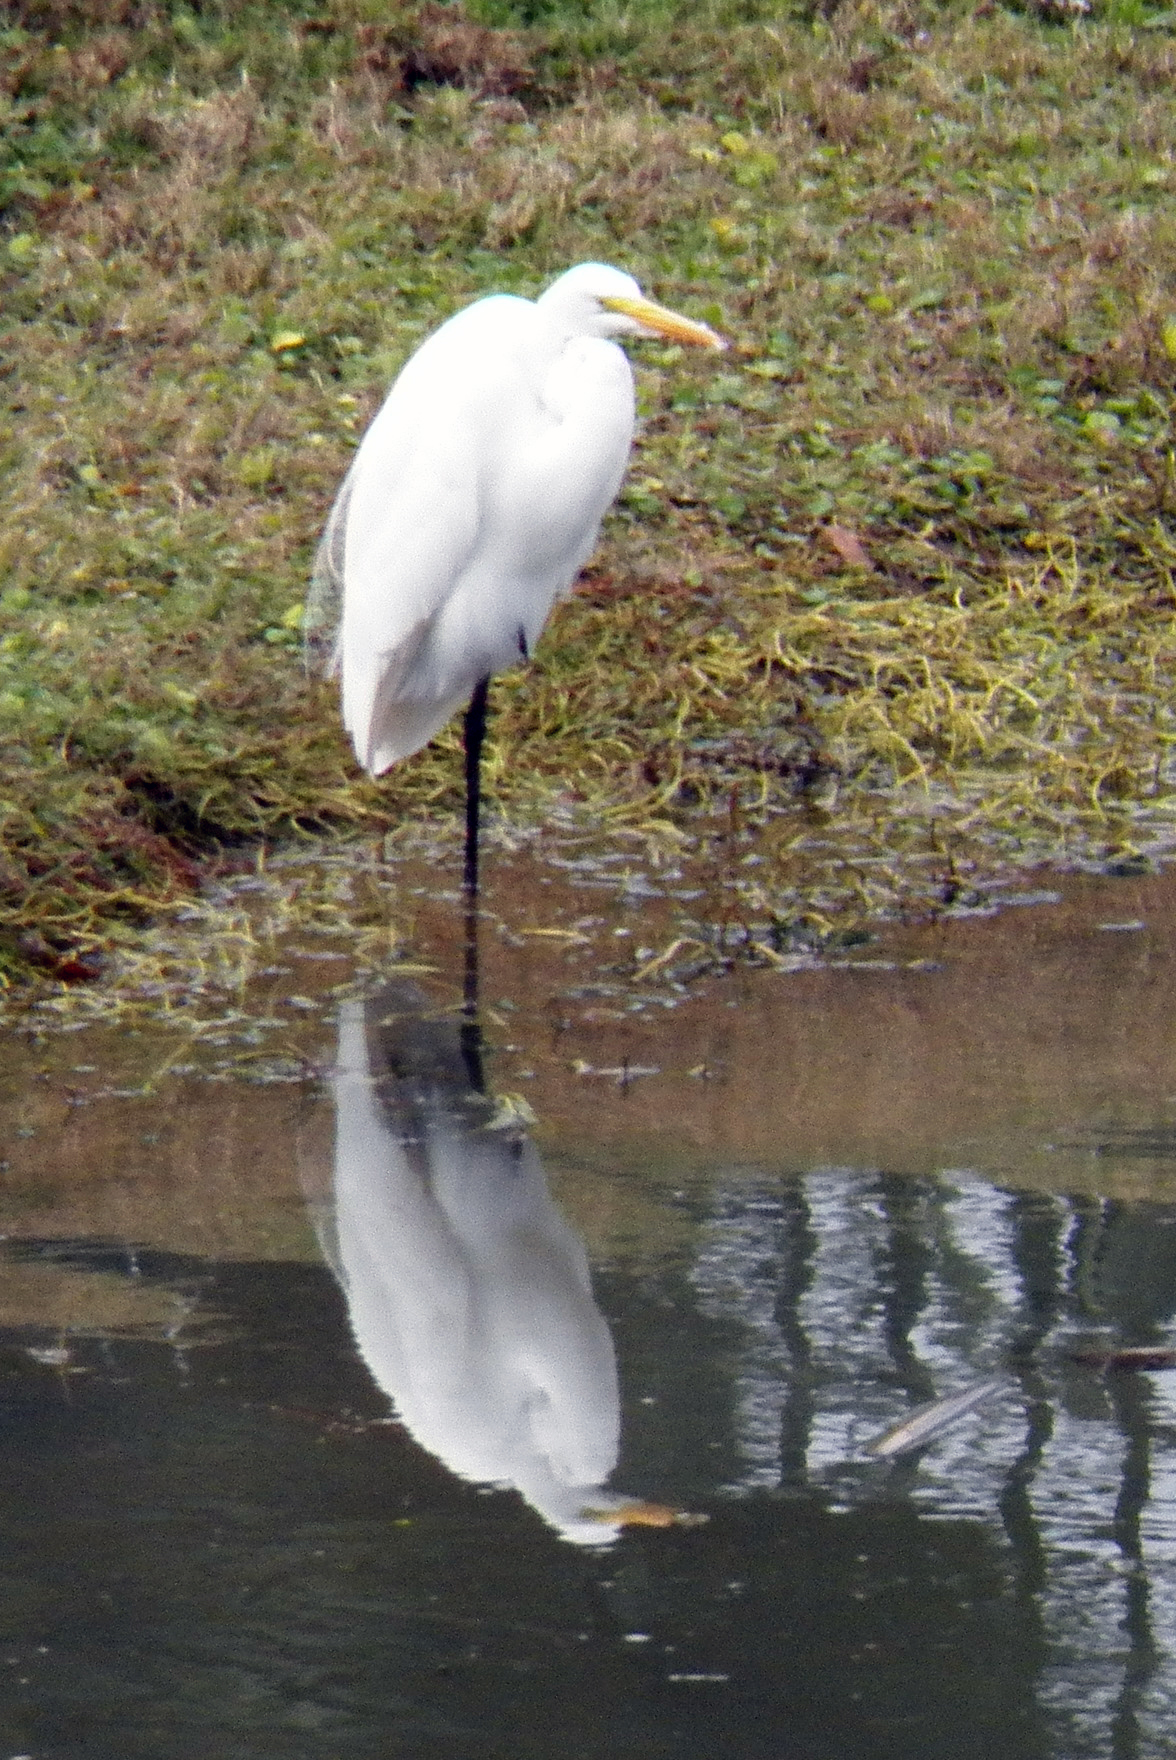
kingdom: Animalia
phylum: Chordata
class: Aves
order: Pelecaniformes
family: Ardeidae
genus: Ardea
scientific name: Ardea alba
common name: Great egret
